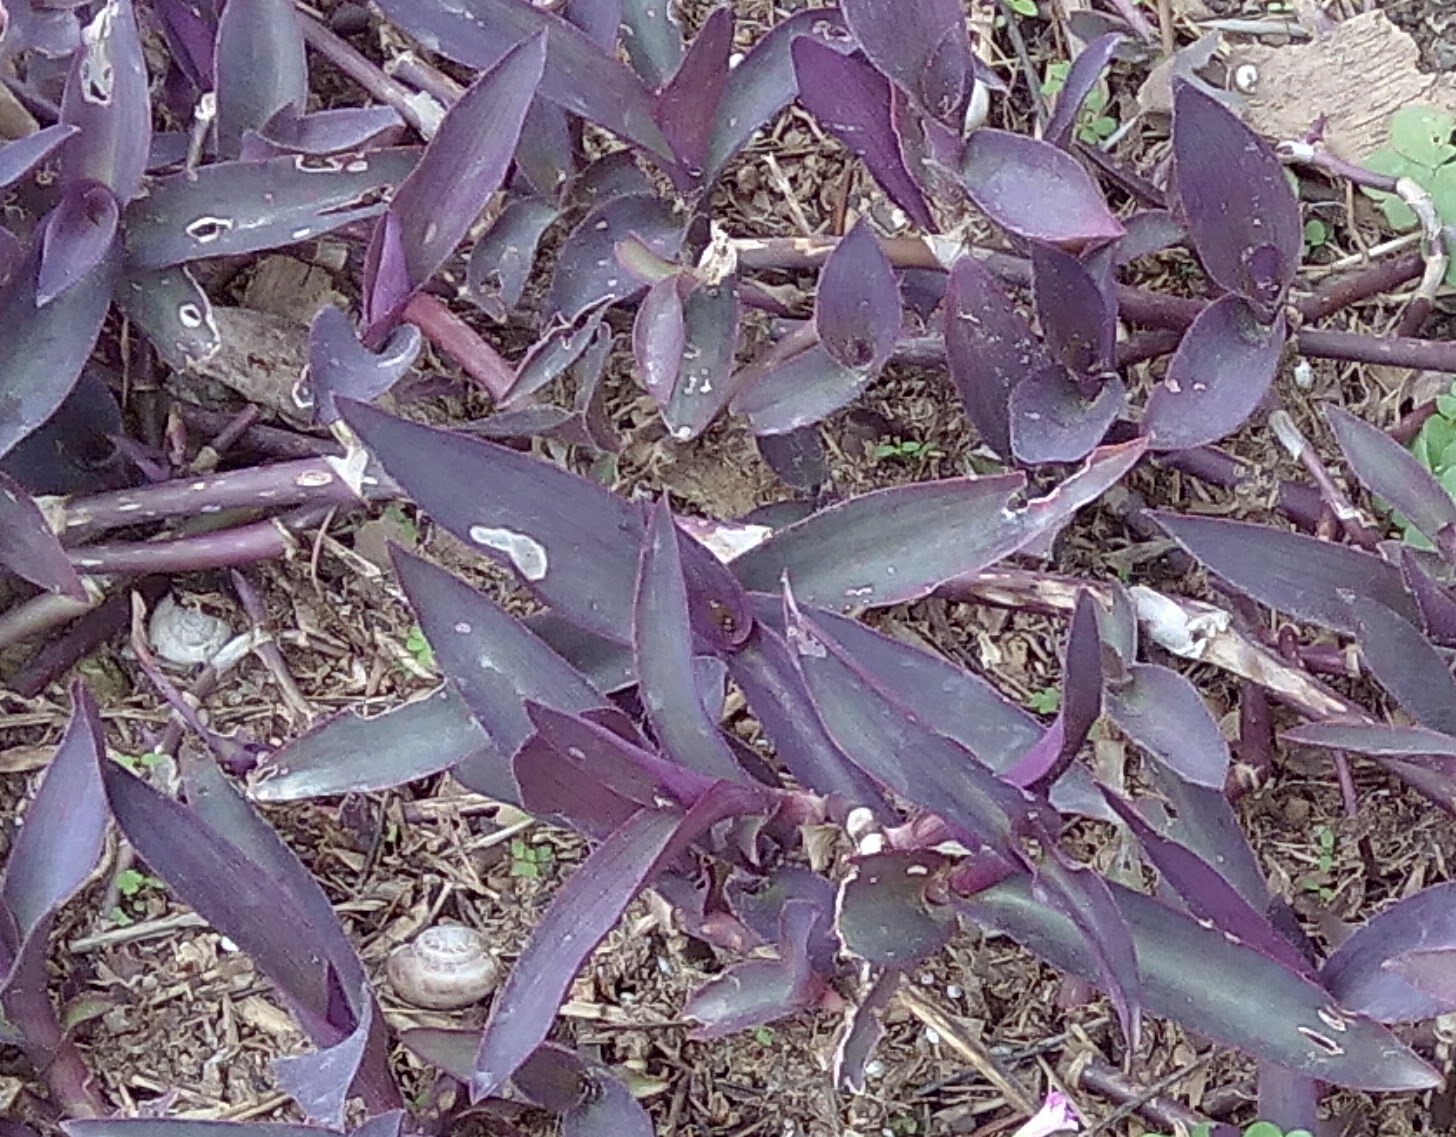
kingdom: Plantae
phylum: Tracheophyta
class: Liliopsida
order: Commelinales
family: Commelinaceae
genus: Tradescantia
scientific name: Tradescantia pallida
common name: Purpleheart
